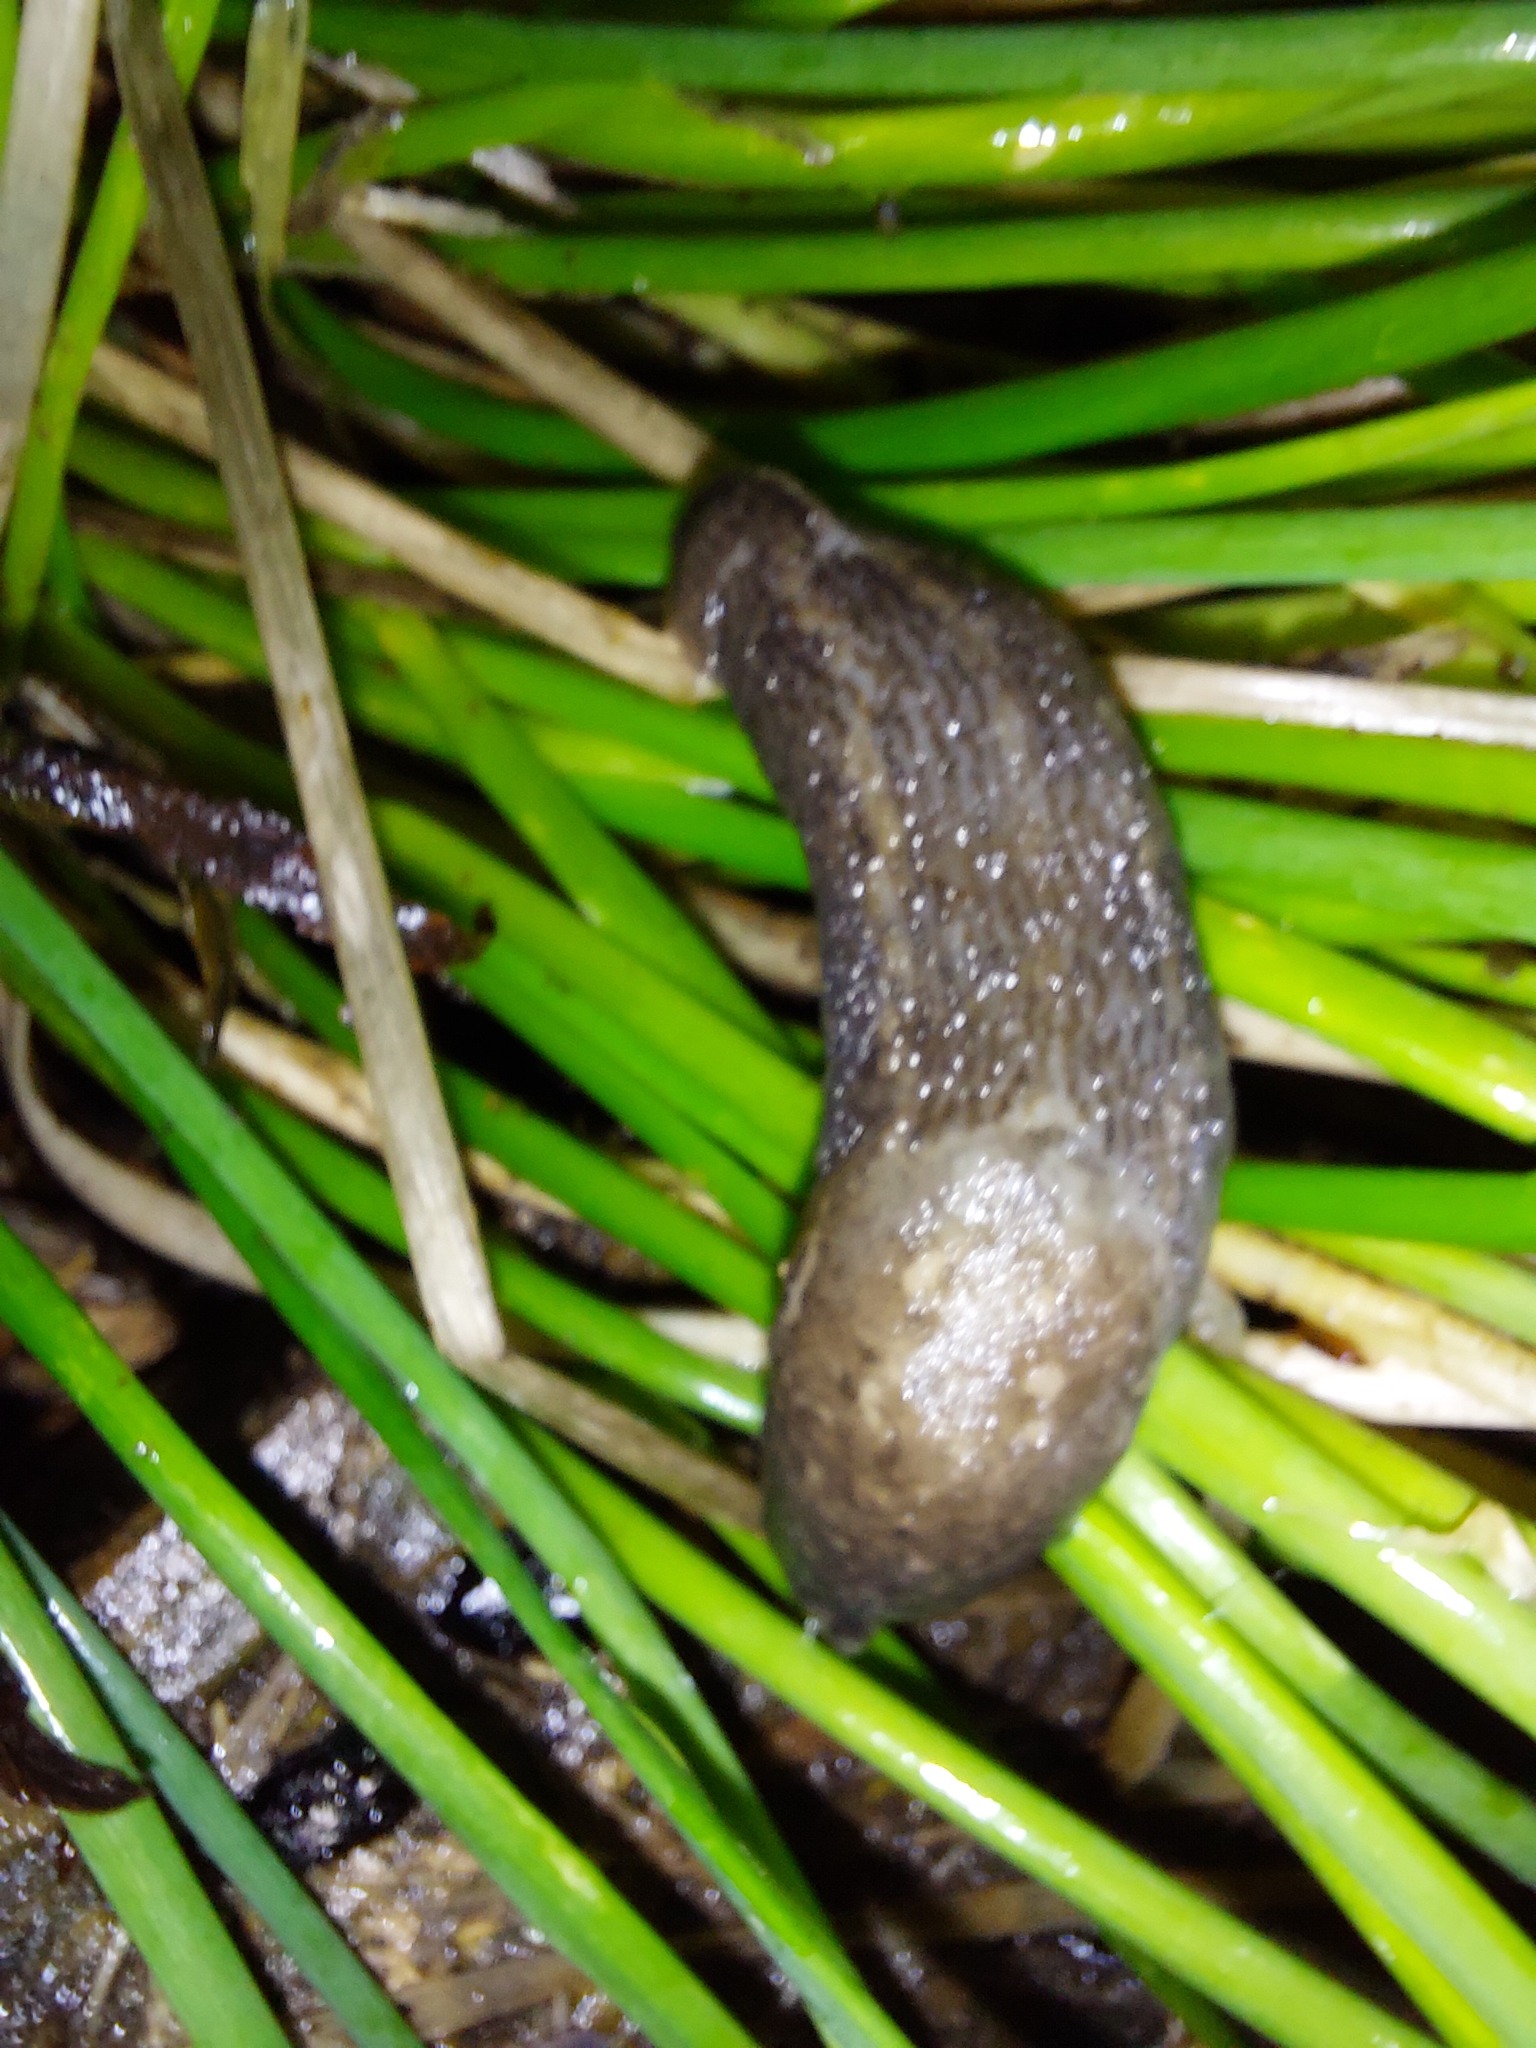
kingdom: Animalia
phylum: Mollusca
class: Gastropoda
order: Stylommatophora
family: Limacidae
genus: Limax
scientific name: Limax maximus
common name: Great grey slug
